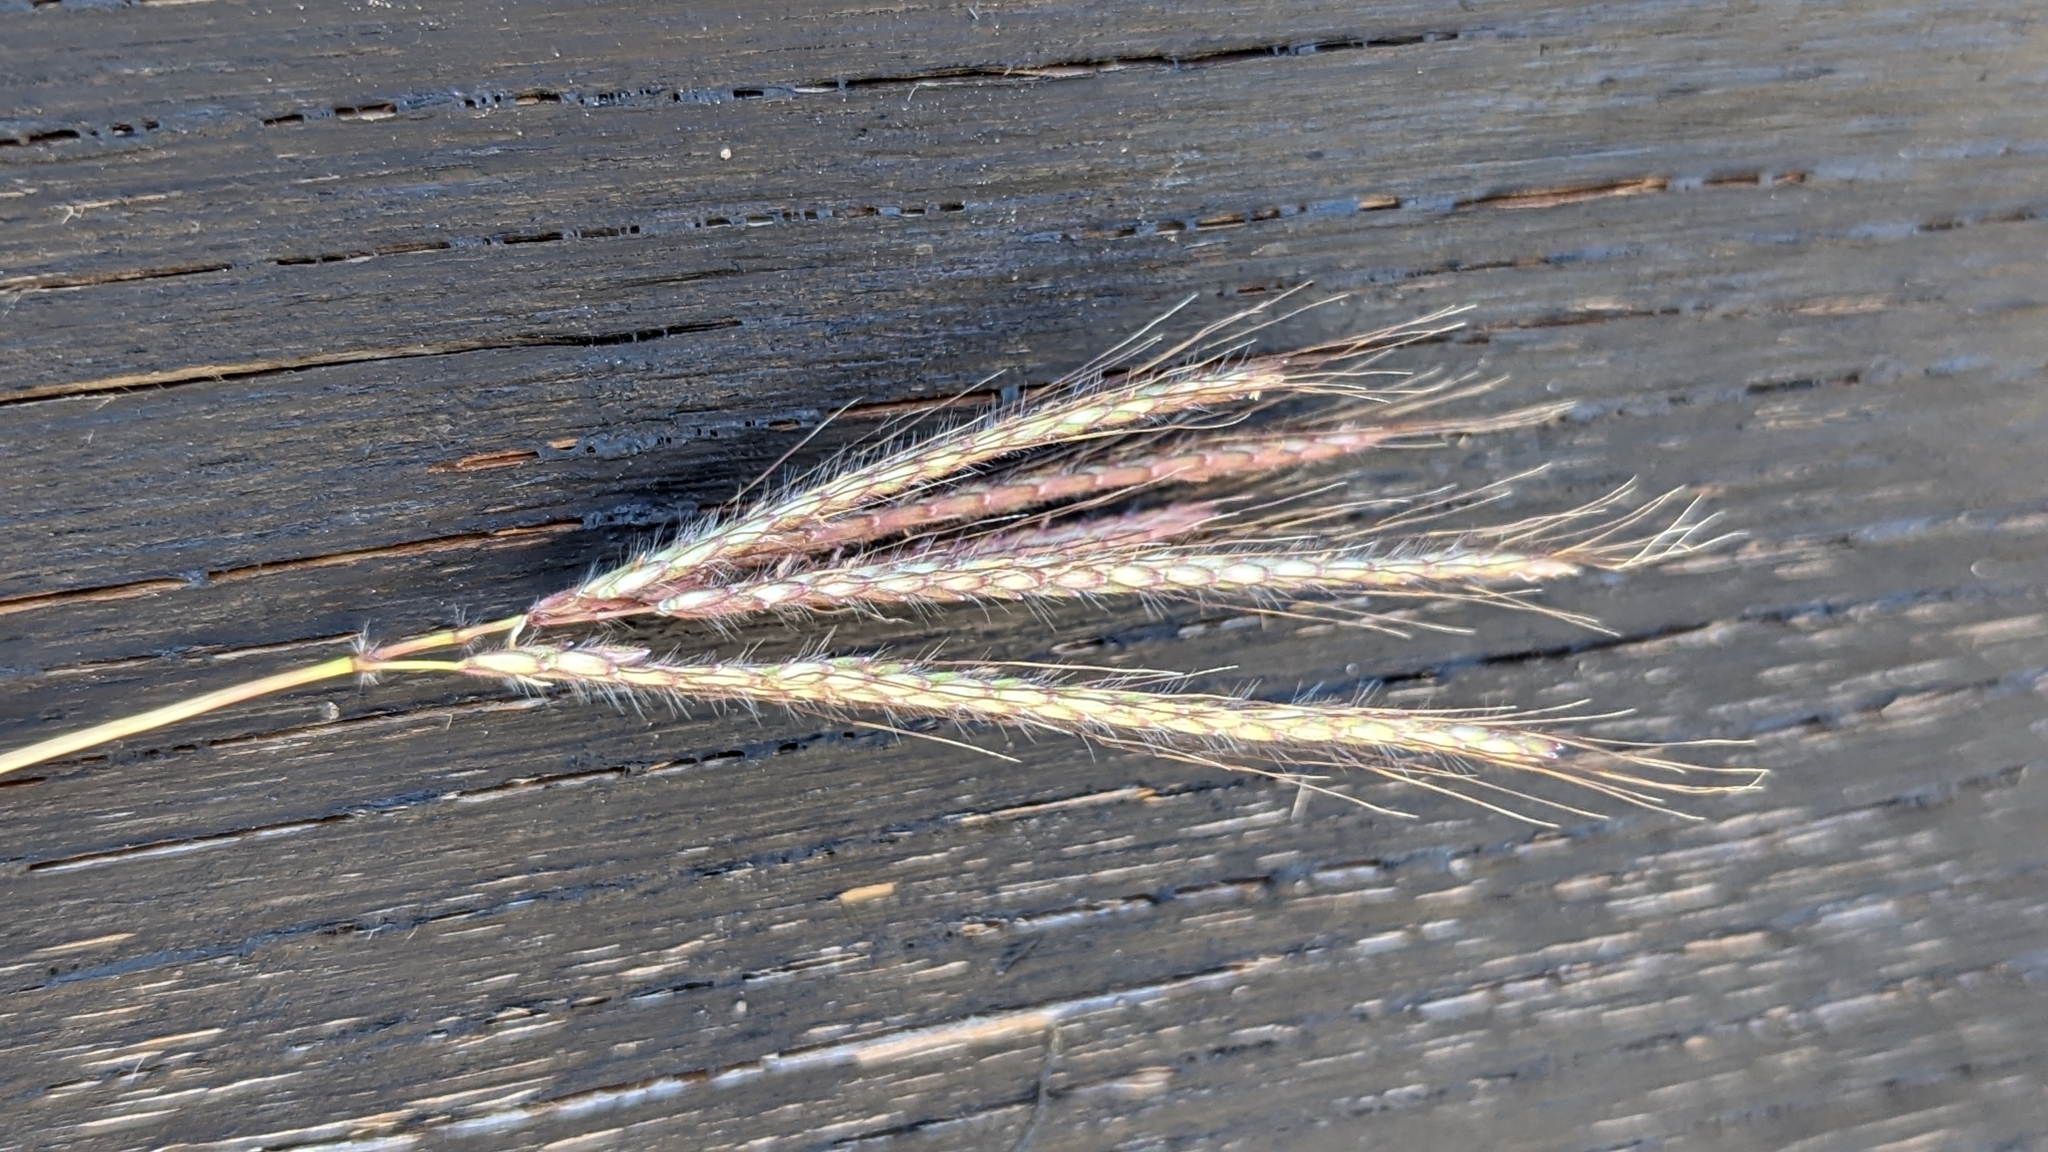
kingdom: Plantae
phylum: Tracheophyta
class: Liliopsida
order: Poales
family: Poaceae
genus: Dichanthium
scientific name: Dichanthium annulatum
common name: Kleberg's bluestem
